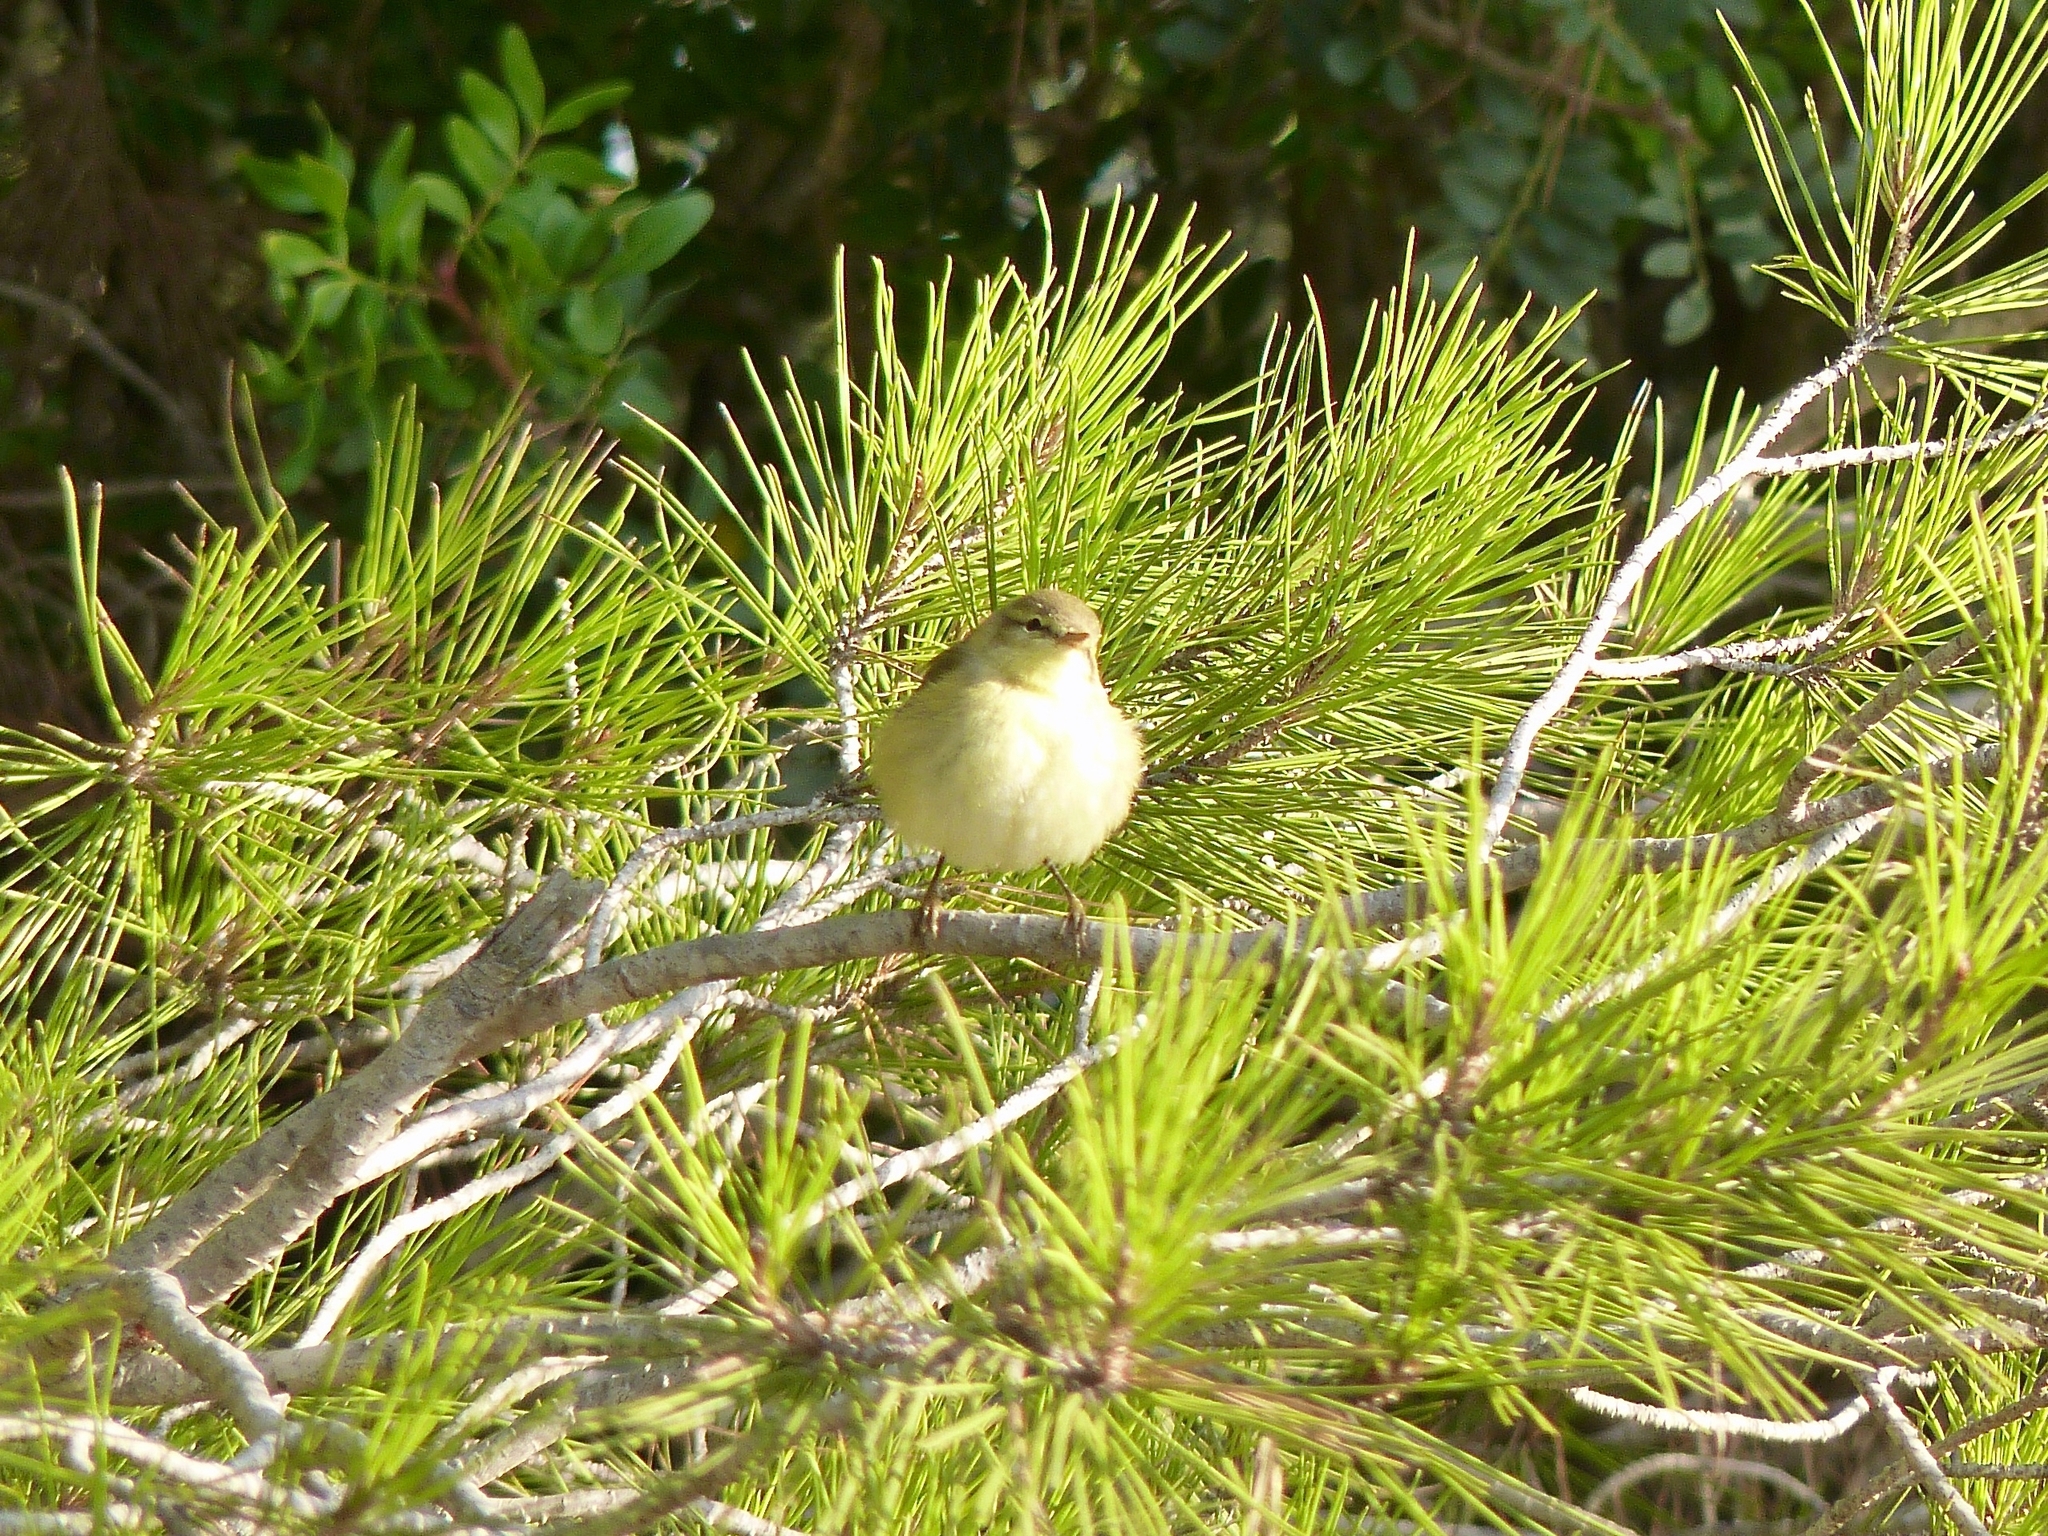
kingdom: Animalia
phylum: Chordata
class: Aves
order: Passeriformes
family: Phylloscopidae
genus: Phylloscopus
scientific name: Phylloscopus trochilus
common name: Willow warbler
